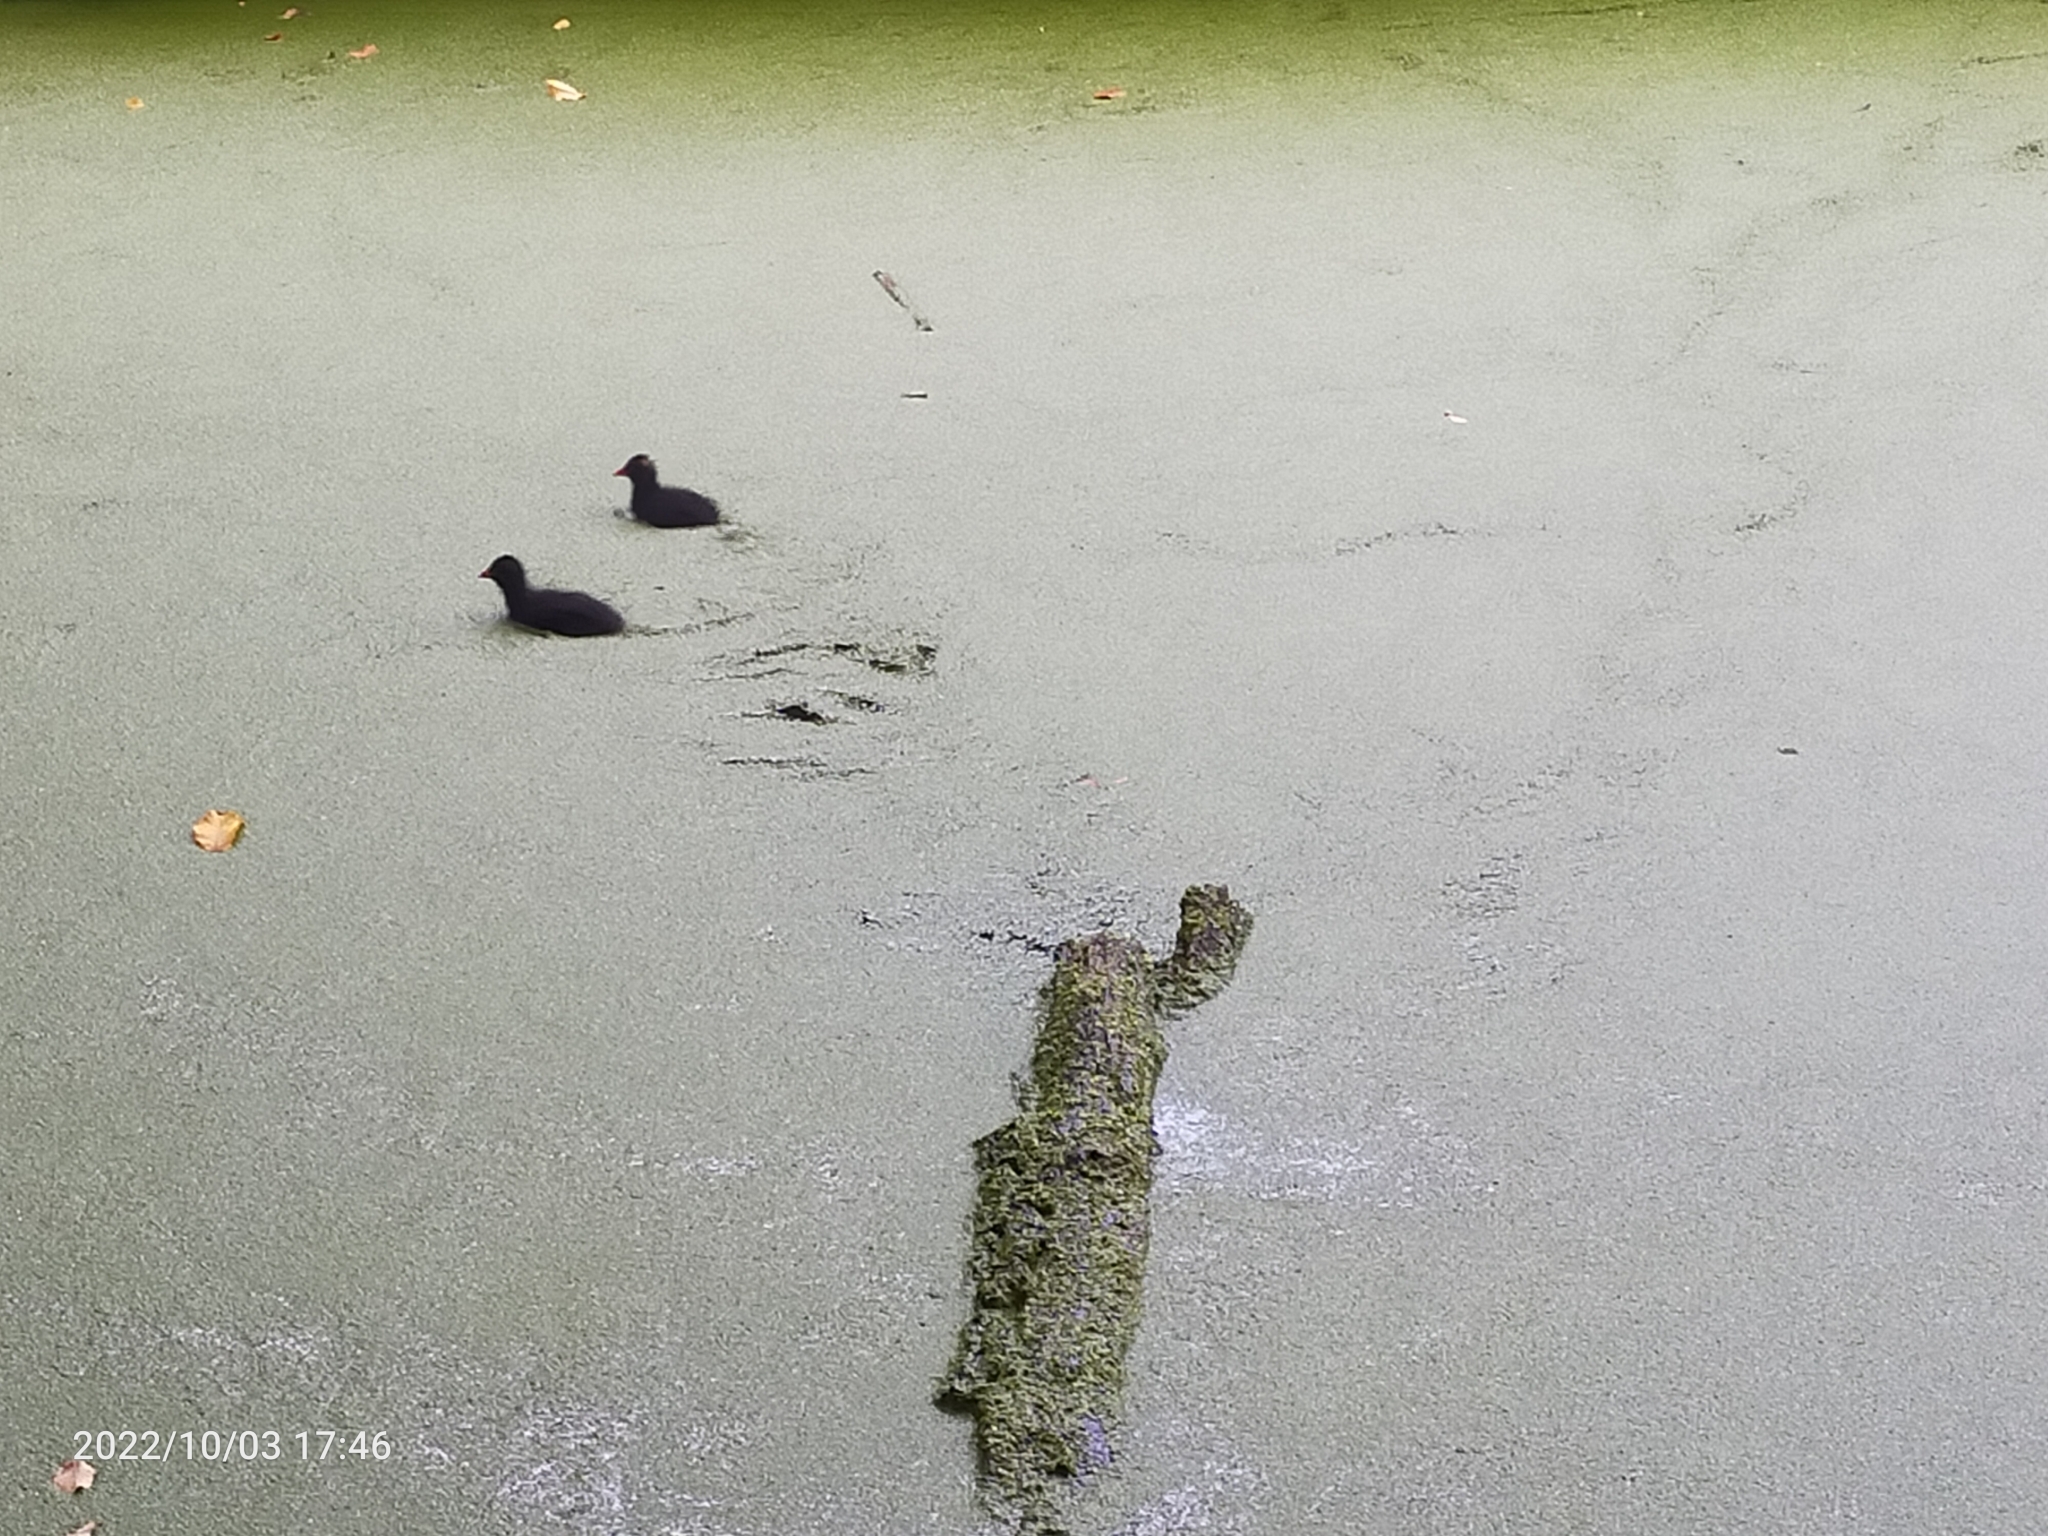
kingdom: Animalia
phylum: Chordata
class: Aves
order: Gruiformes
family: Rallidae
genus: Gallinula
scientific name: Gallinula chloropus
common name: Common moorhen
